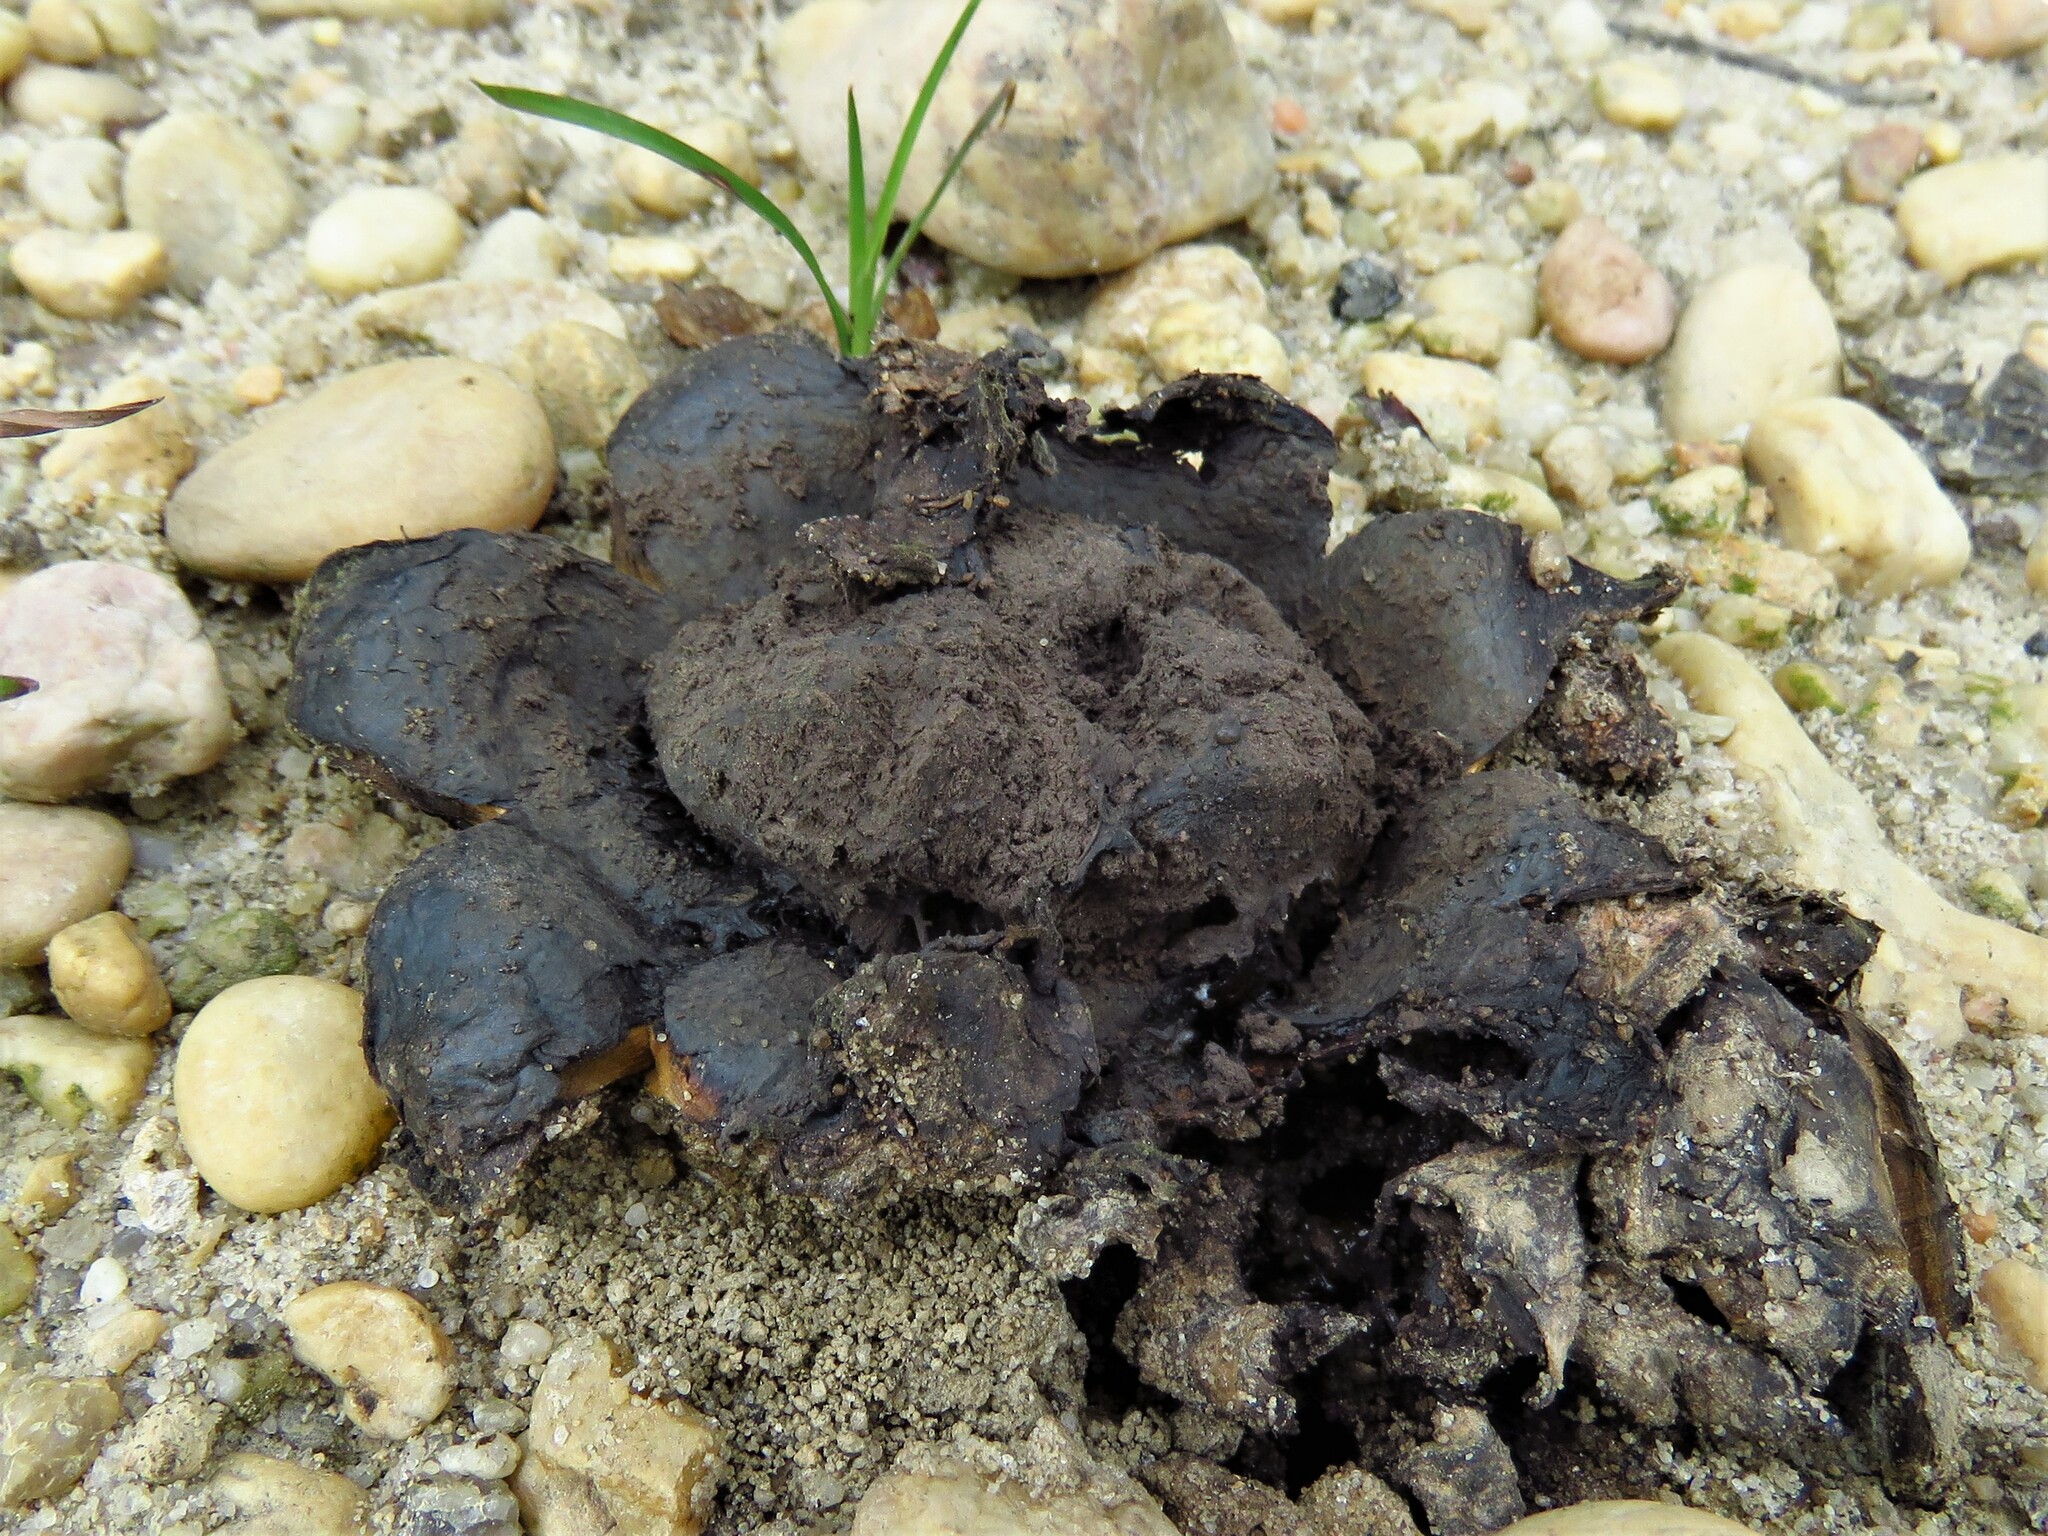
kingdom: Fungi
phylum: Basidiomycota
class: Agaricomycetes
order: Boletales
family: Sclerodermataceae
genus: Scleroderma
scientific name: Scleroderma polyrhizum
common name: Many-rooted earthball
